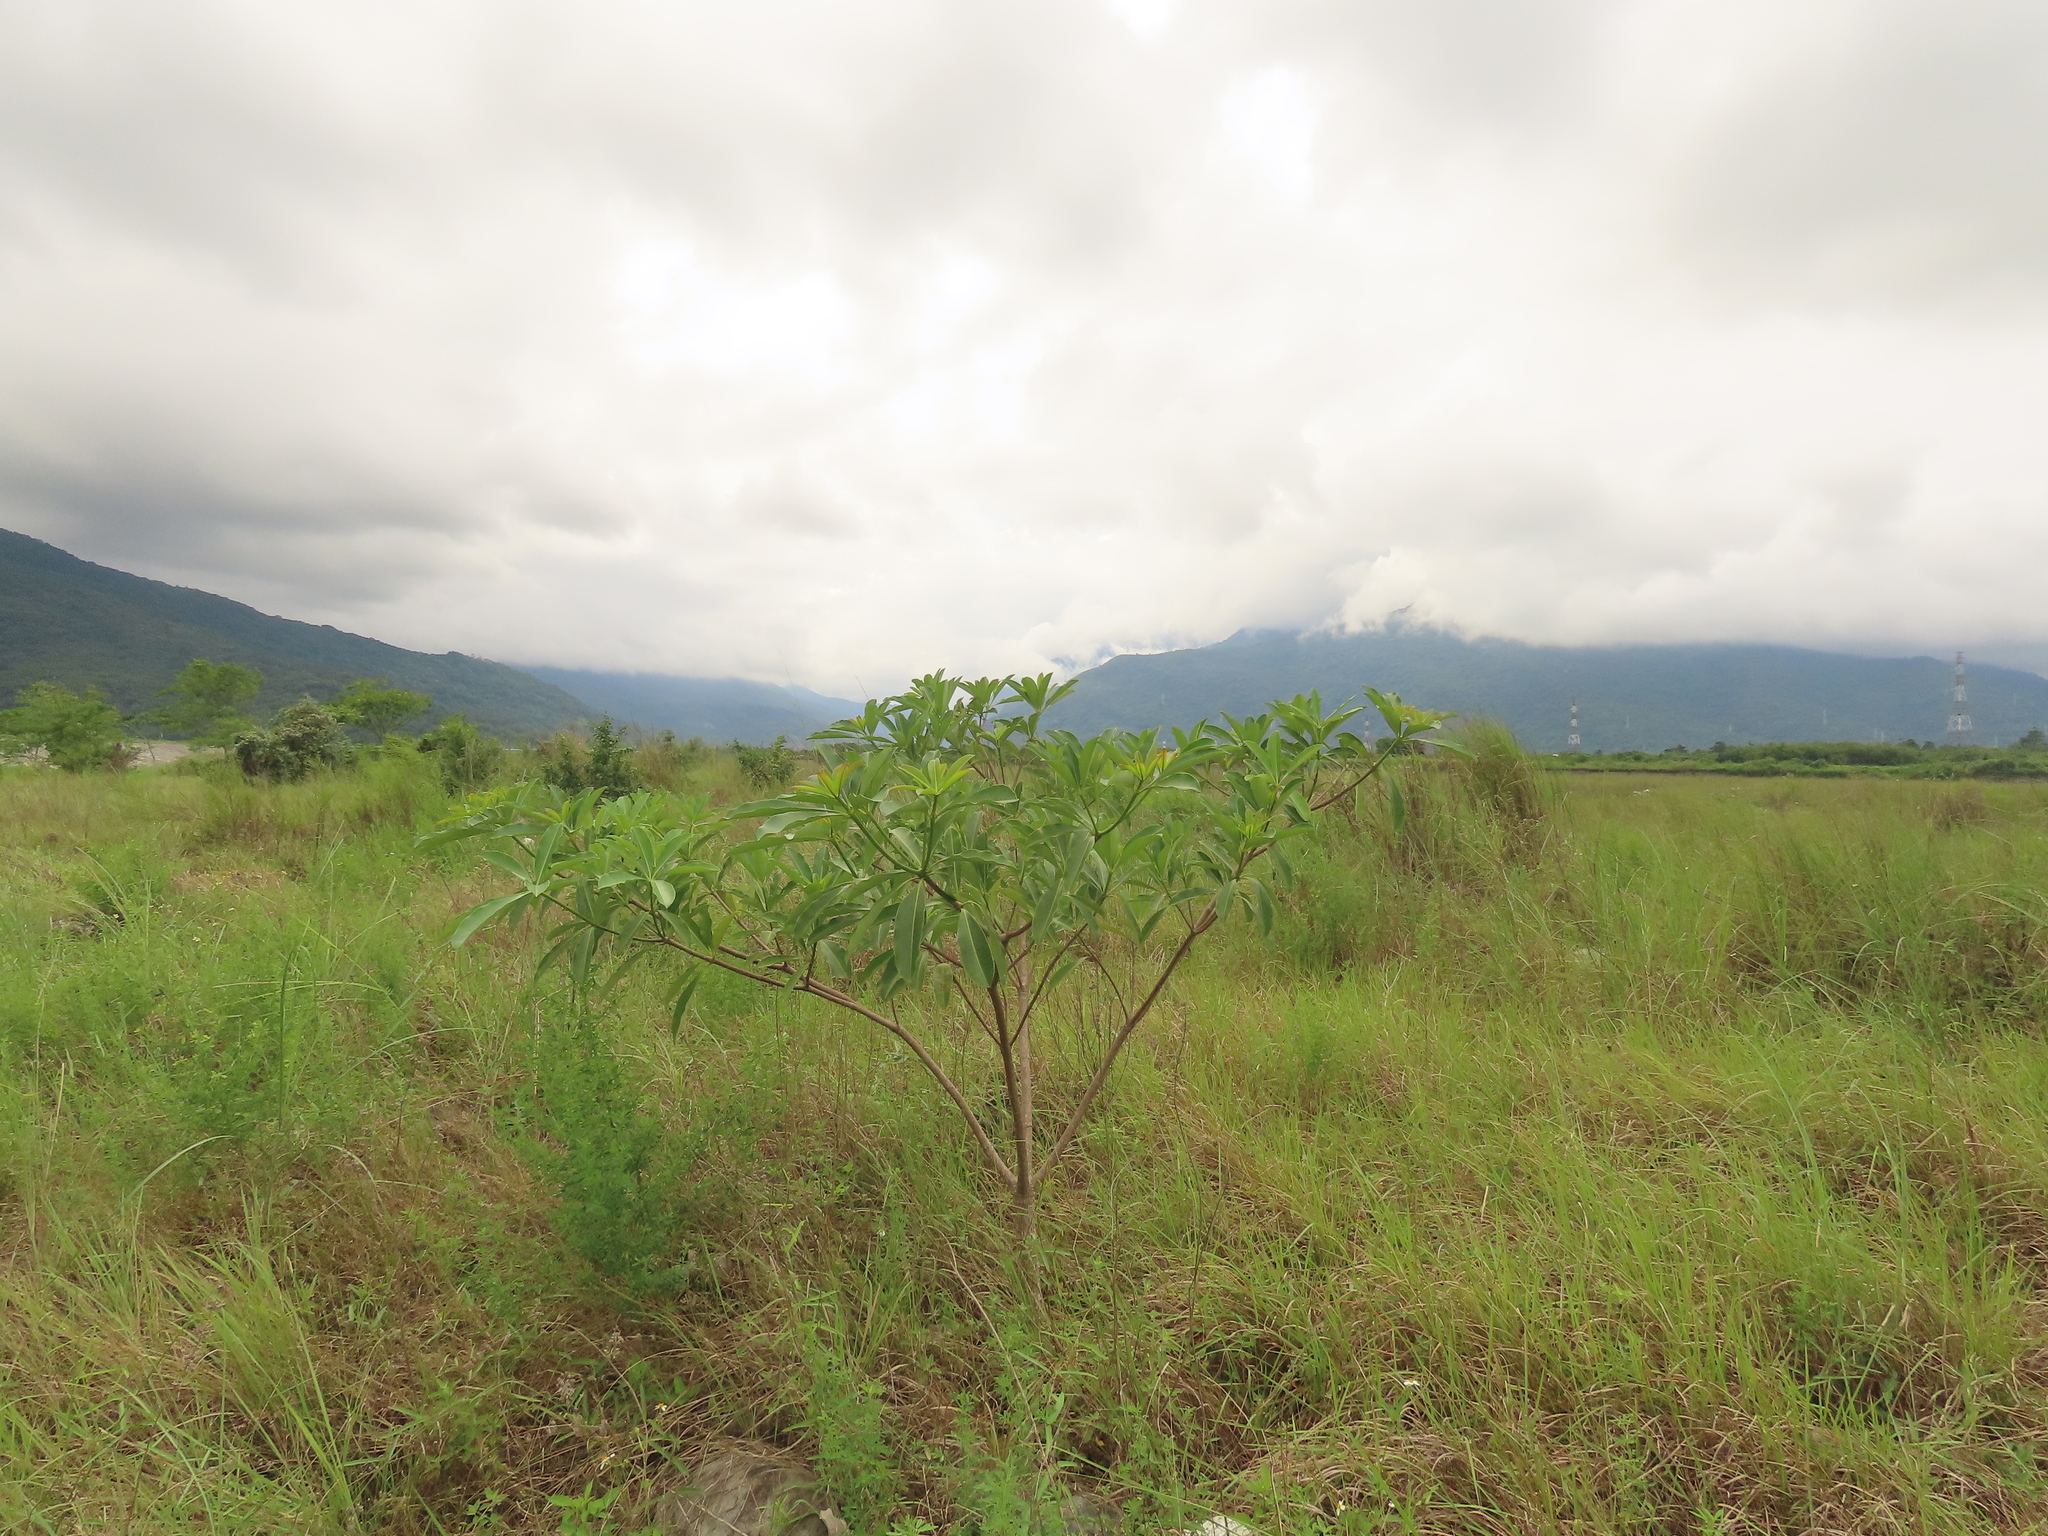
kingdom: Plantae
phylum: Tracheophyta
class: Magnoliopsida
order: Gentianales
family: Apocynaceae
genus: Alstonia
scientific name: Alstonia scholaris
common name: White cheesewood
